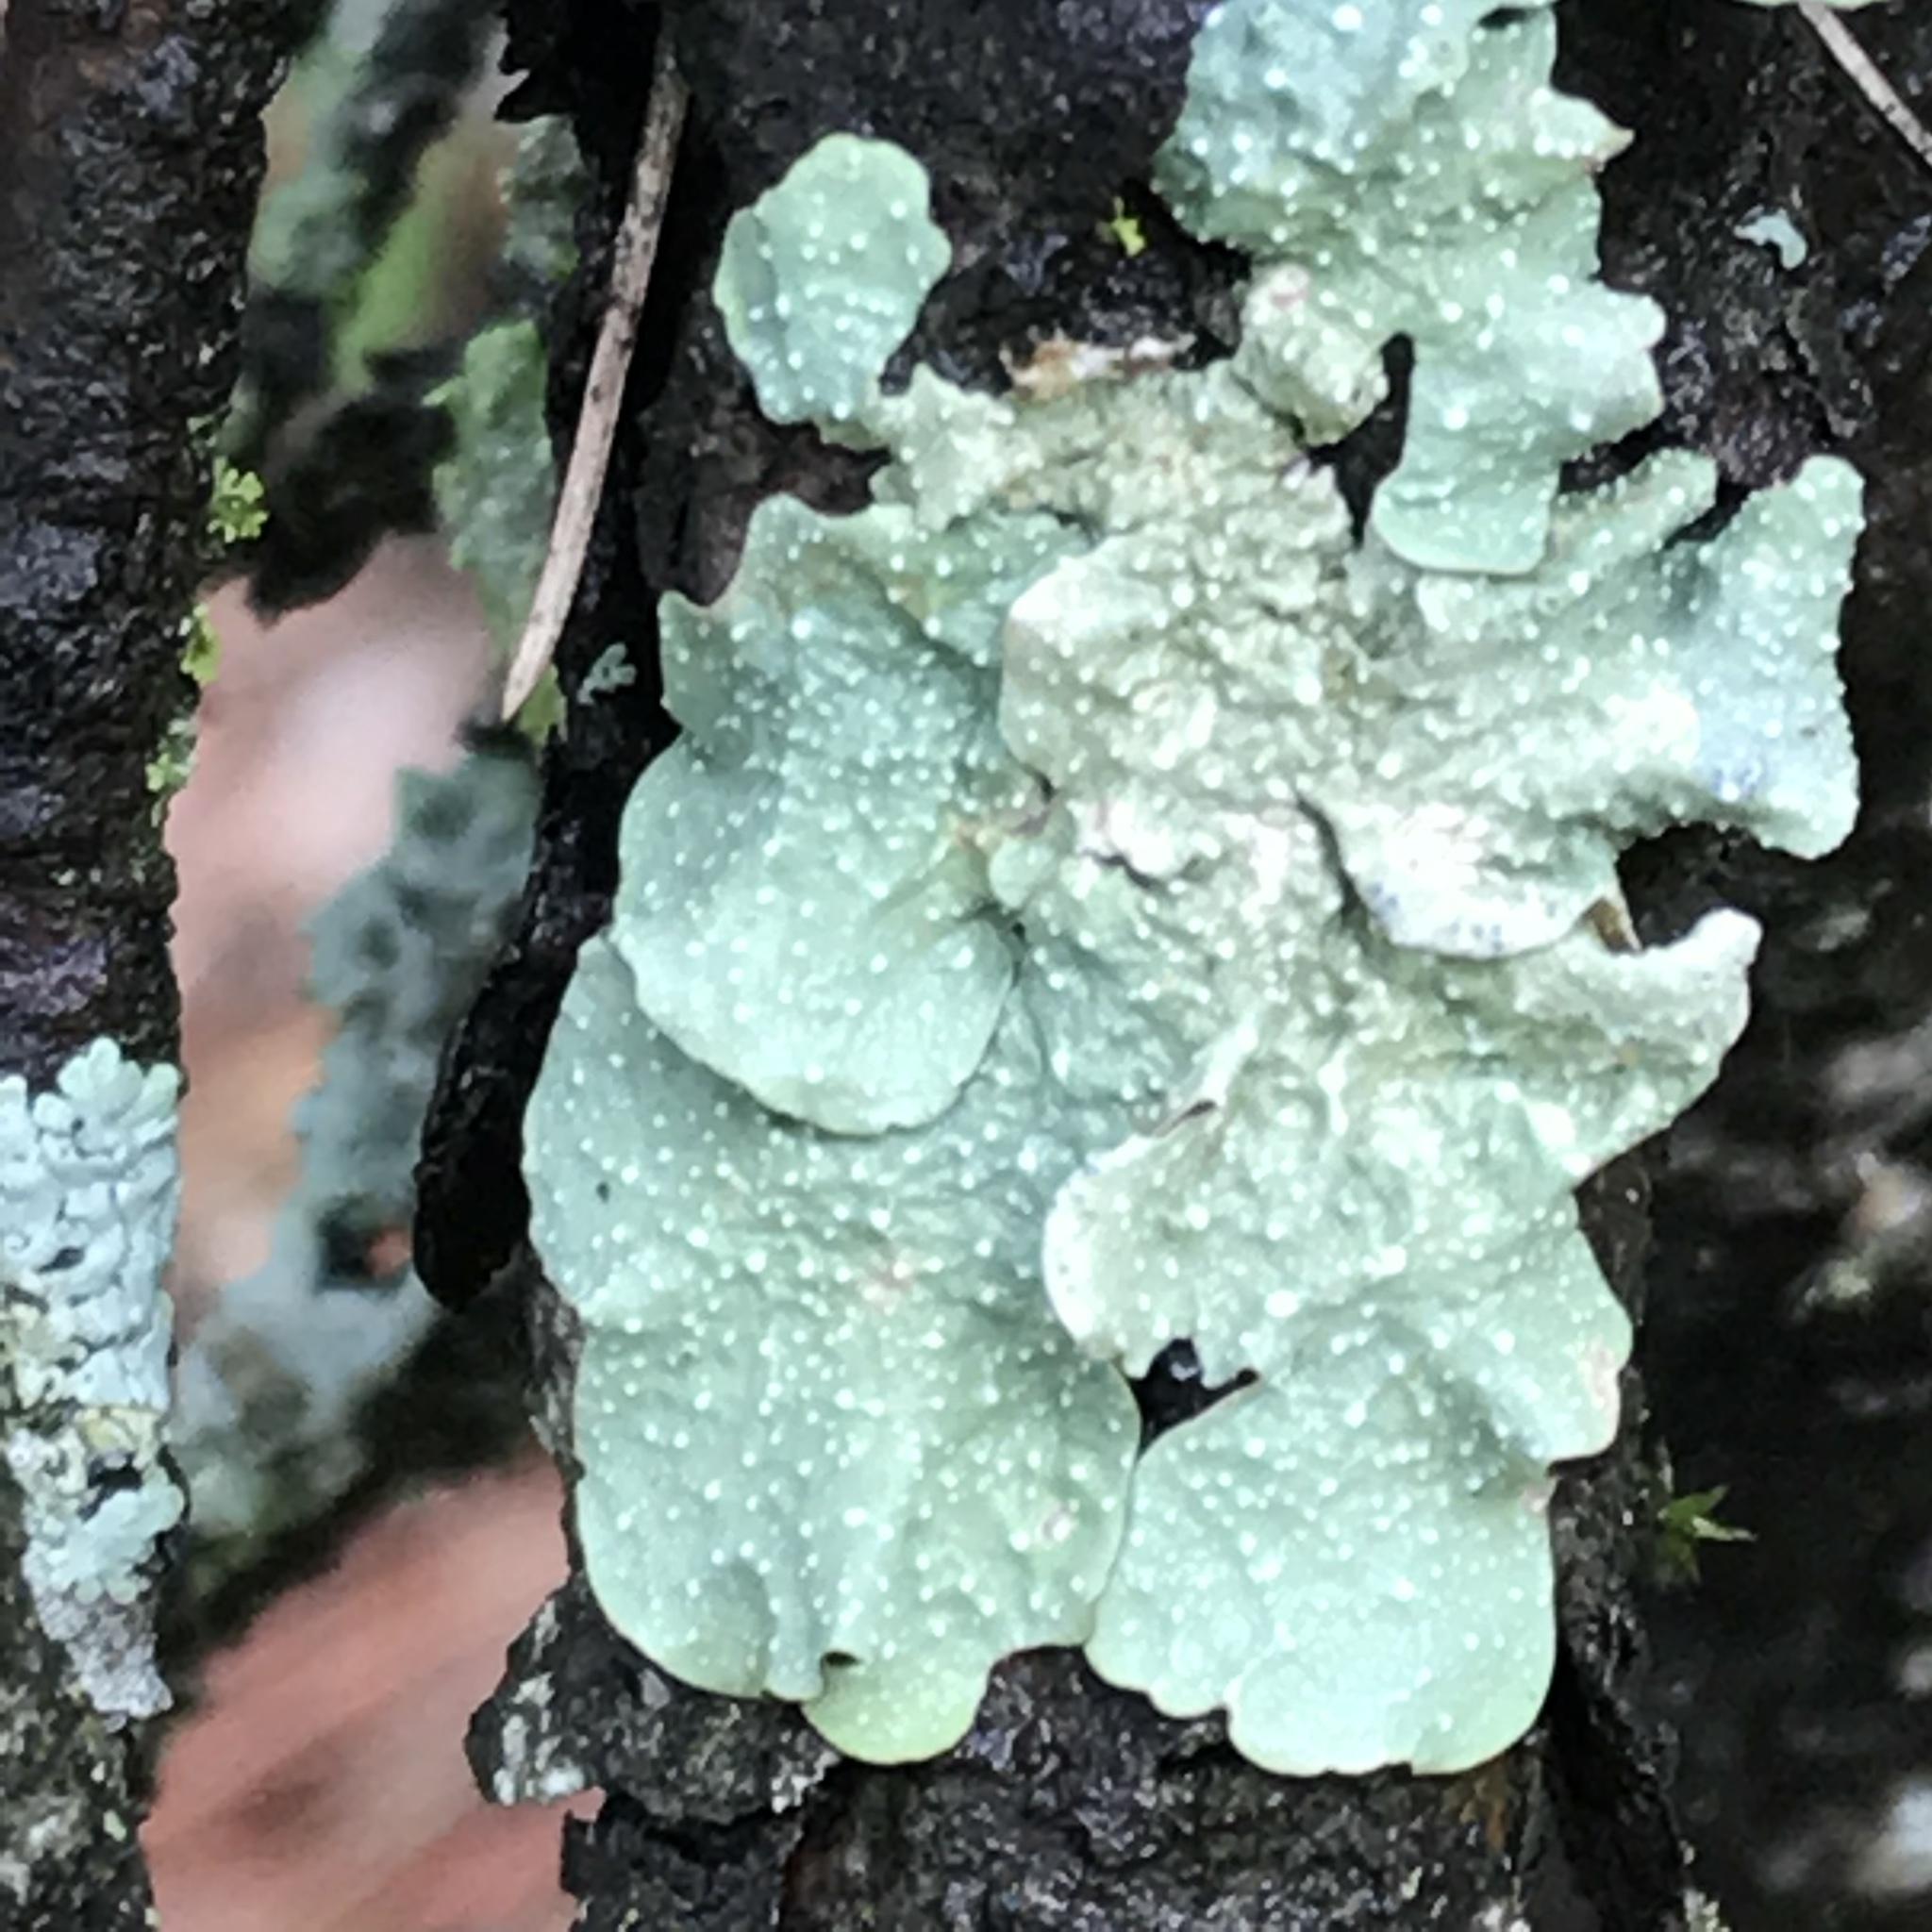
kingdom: Fungi
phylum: Ascomycota
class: Lecanoromycetes
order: Lecanorales
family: Parmeliaceae
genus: Flavopunctelia
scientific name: Flavopunctelia flaventior
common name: Speckled greenshield
